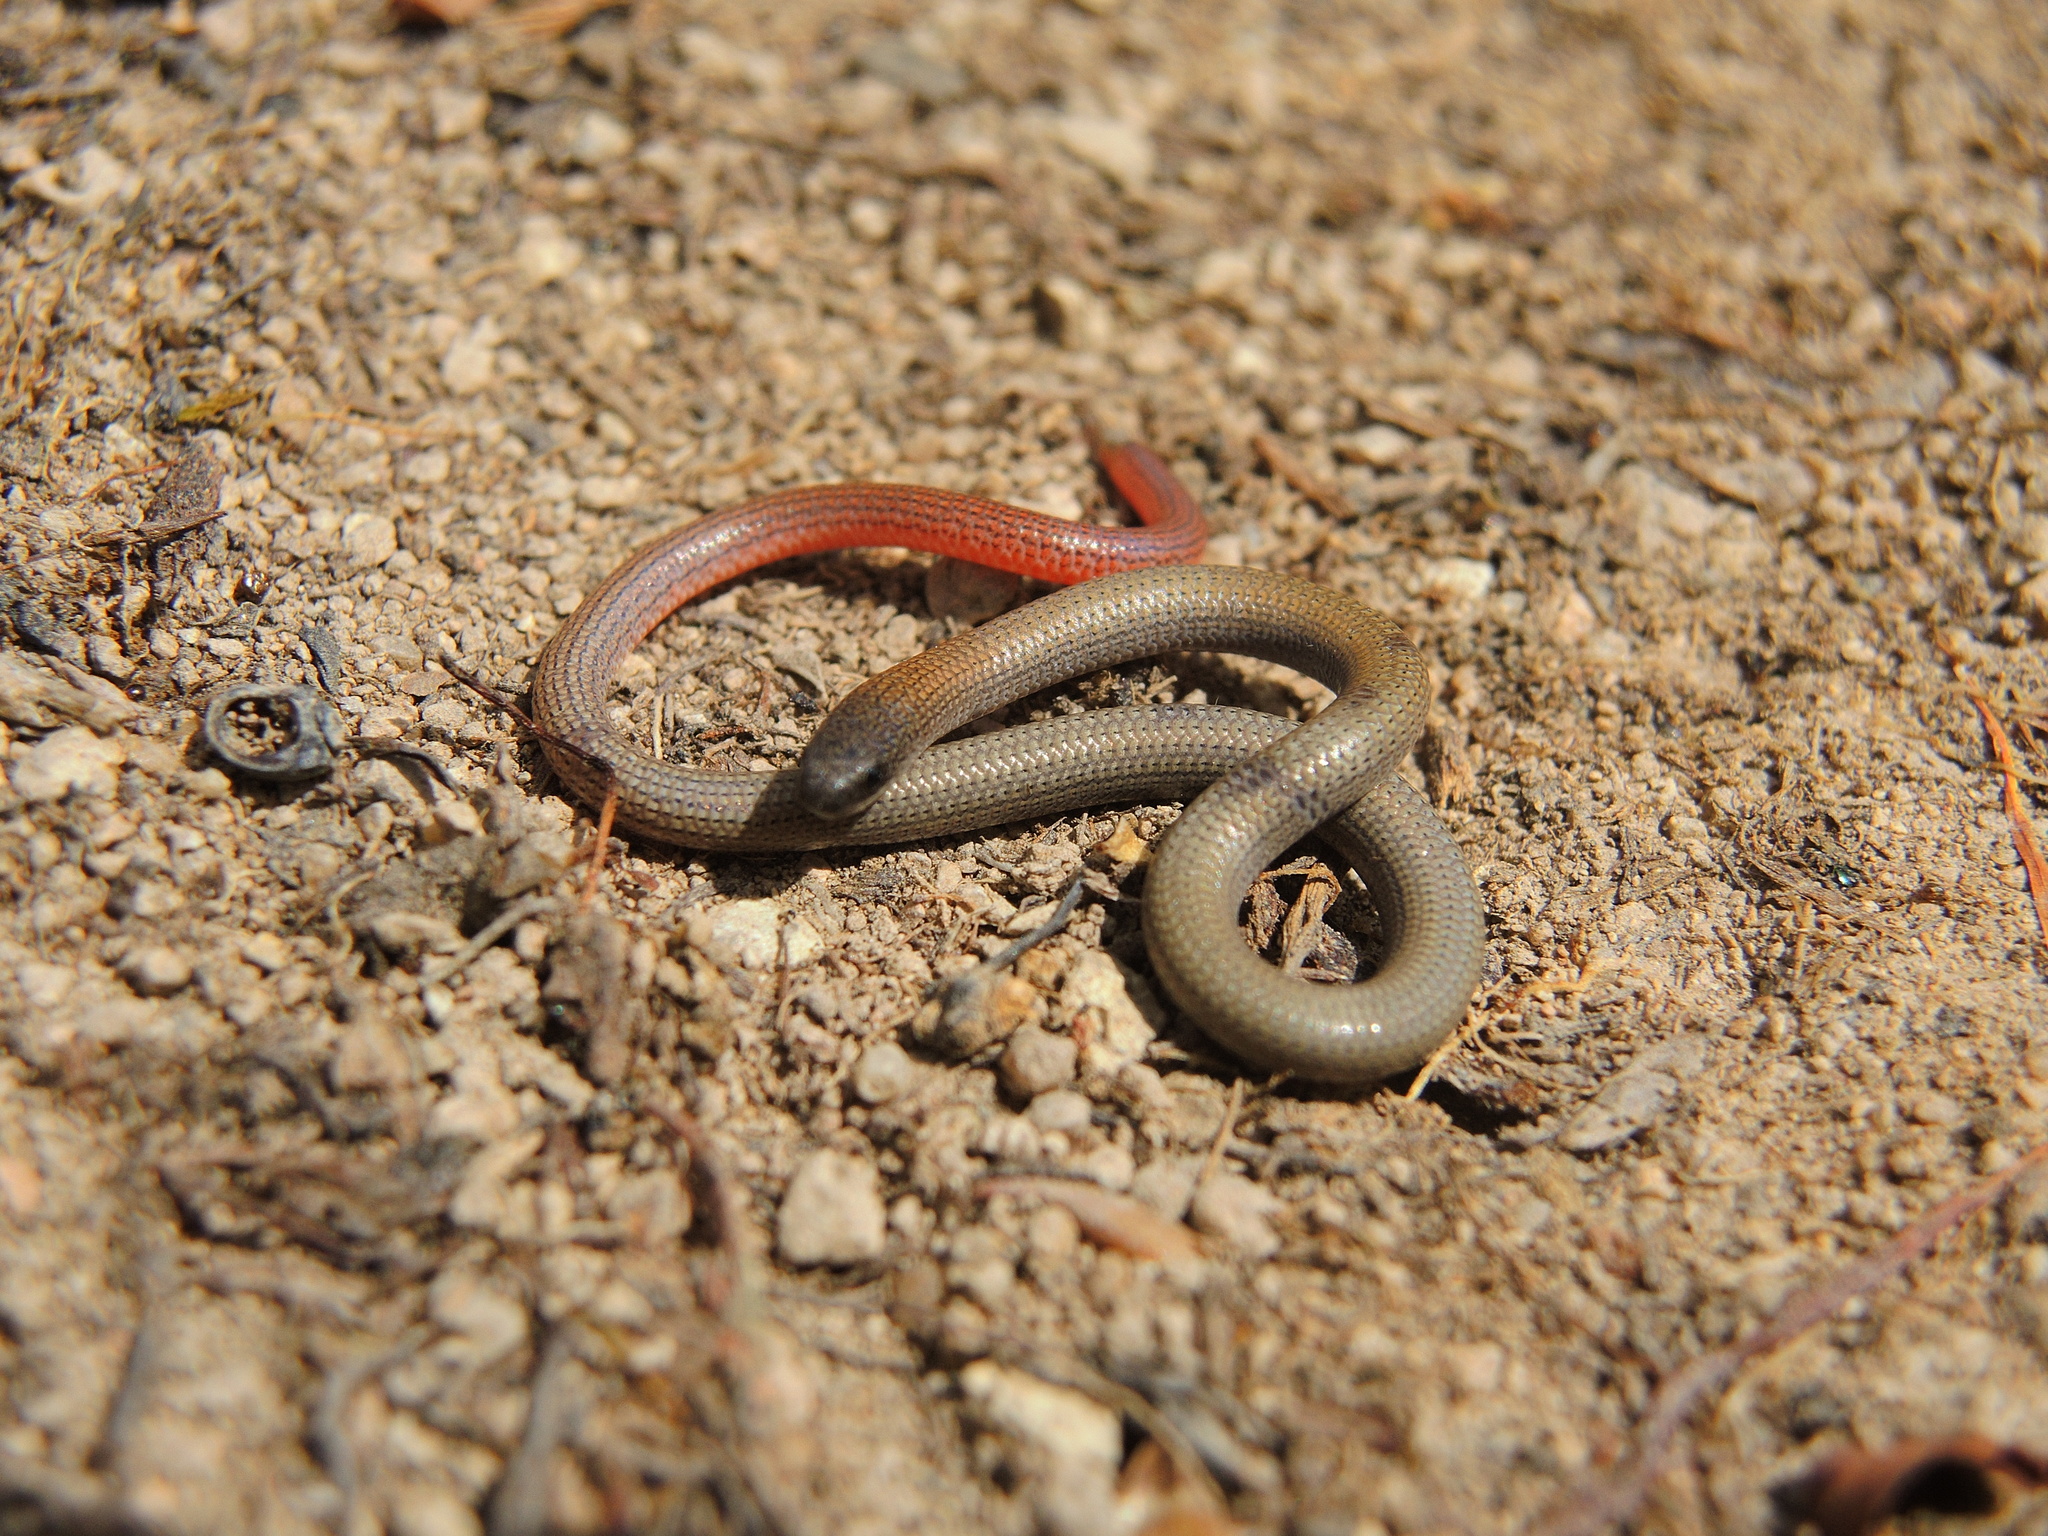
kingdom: Animalia
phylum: Chordata
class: Squamata
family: Pygopodidae
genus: Aprasia
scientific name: Aprasia parapulchella
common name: Granite worm-lizard
